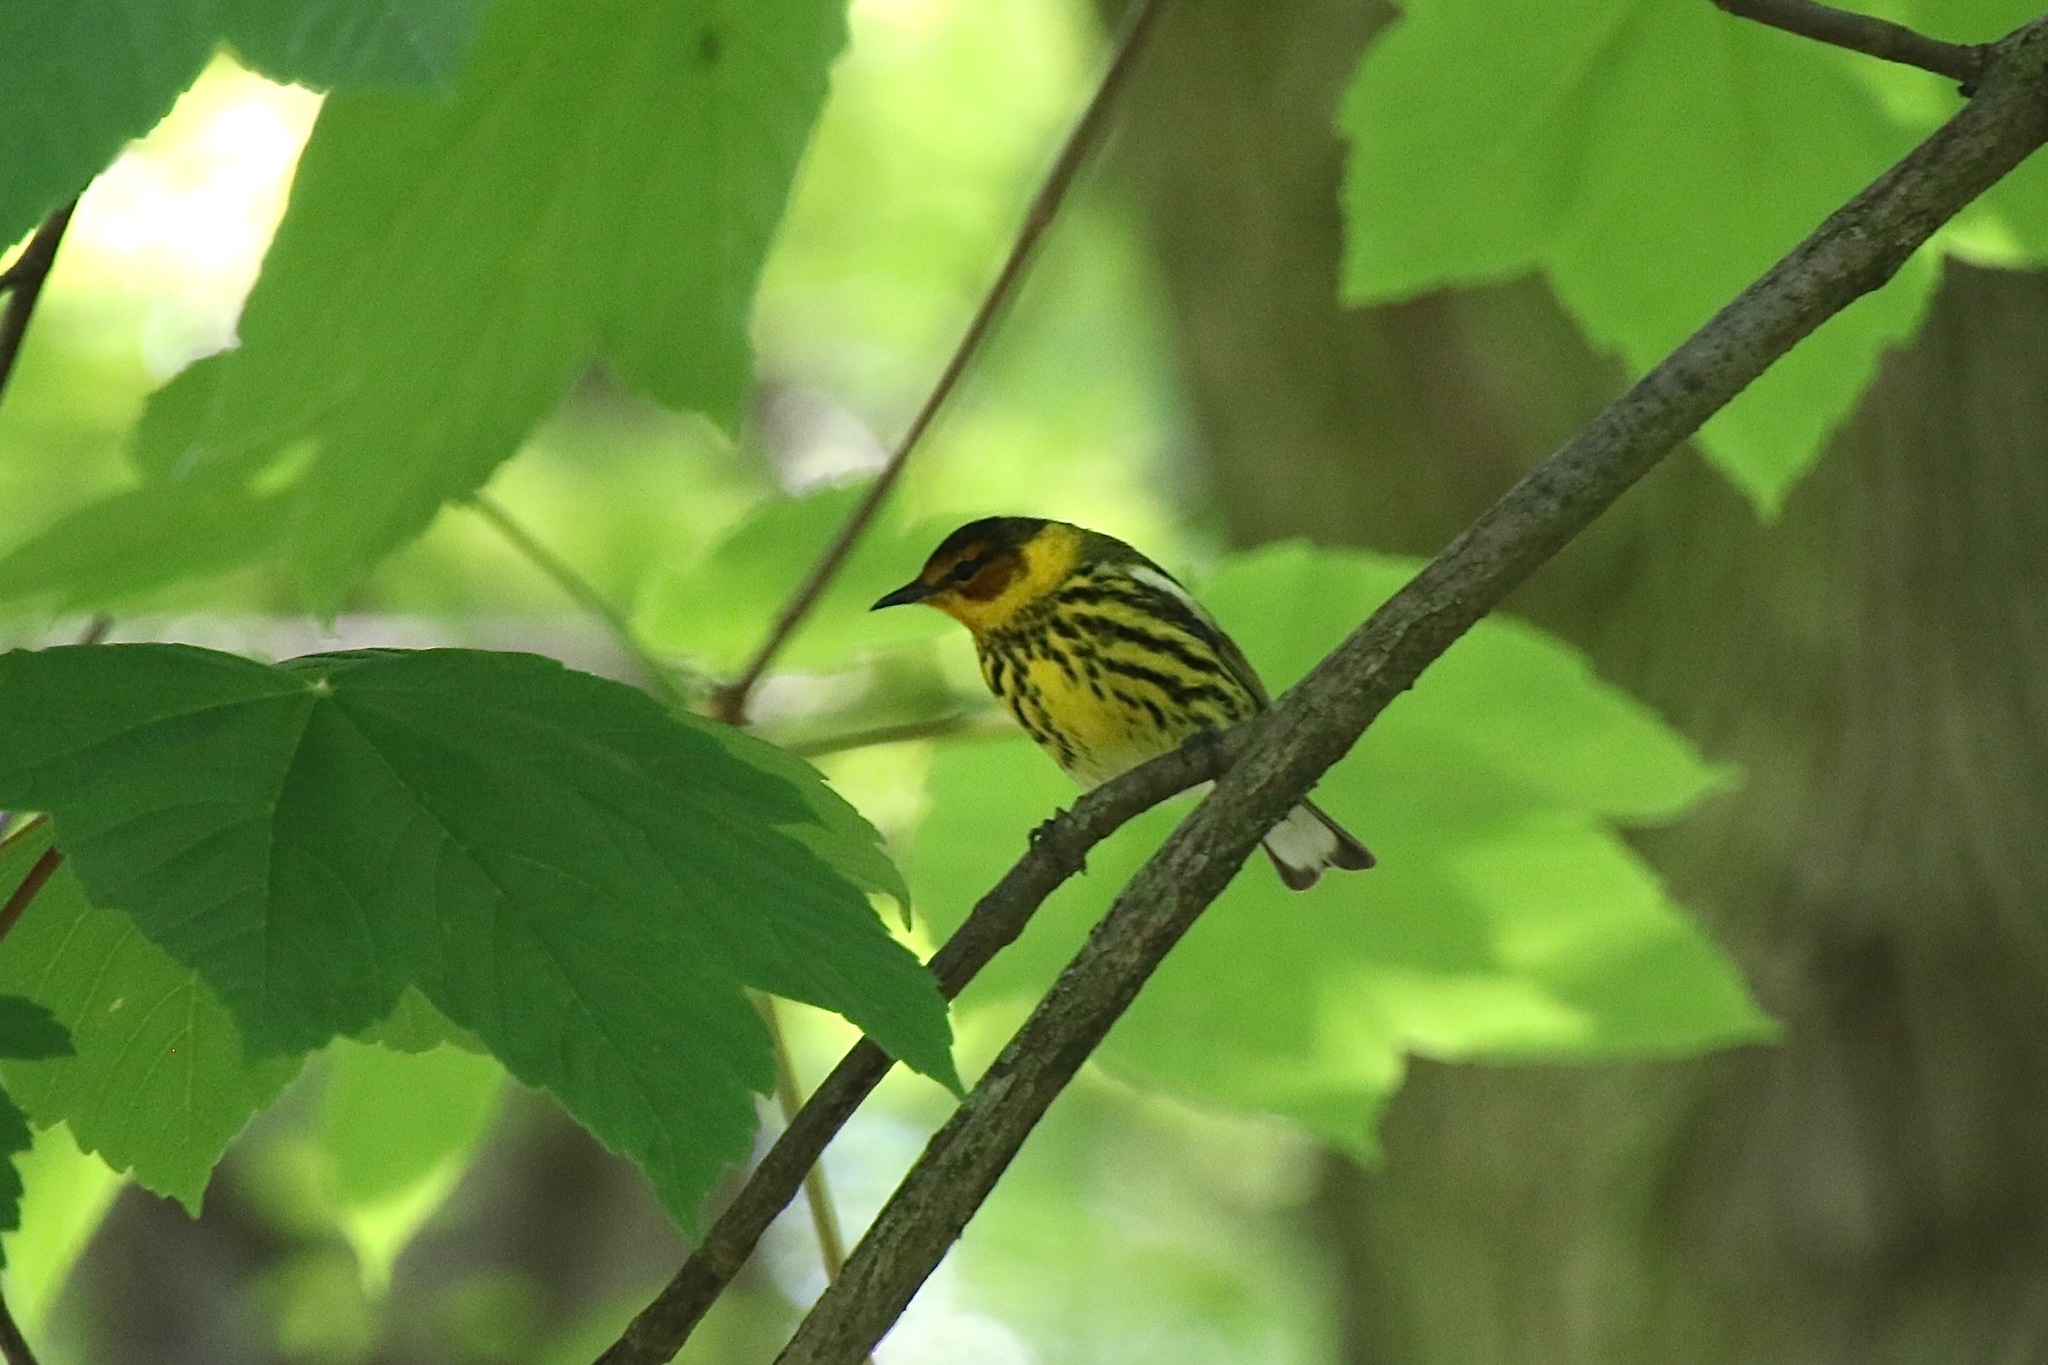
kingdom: Animalia
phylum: Chordata
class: Aves
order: Passeriformes
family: Parulidae
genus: Setophaga
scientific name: Setophaga tigrina
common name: Cape may warbler
